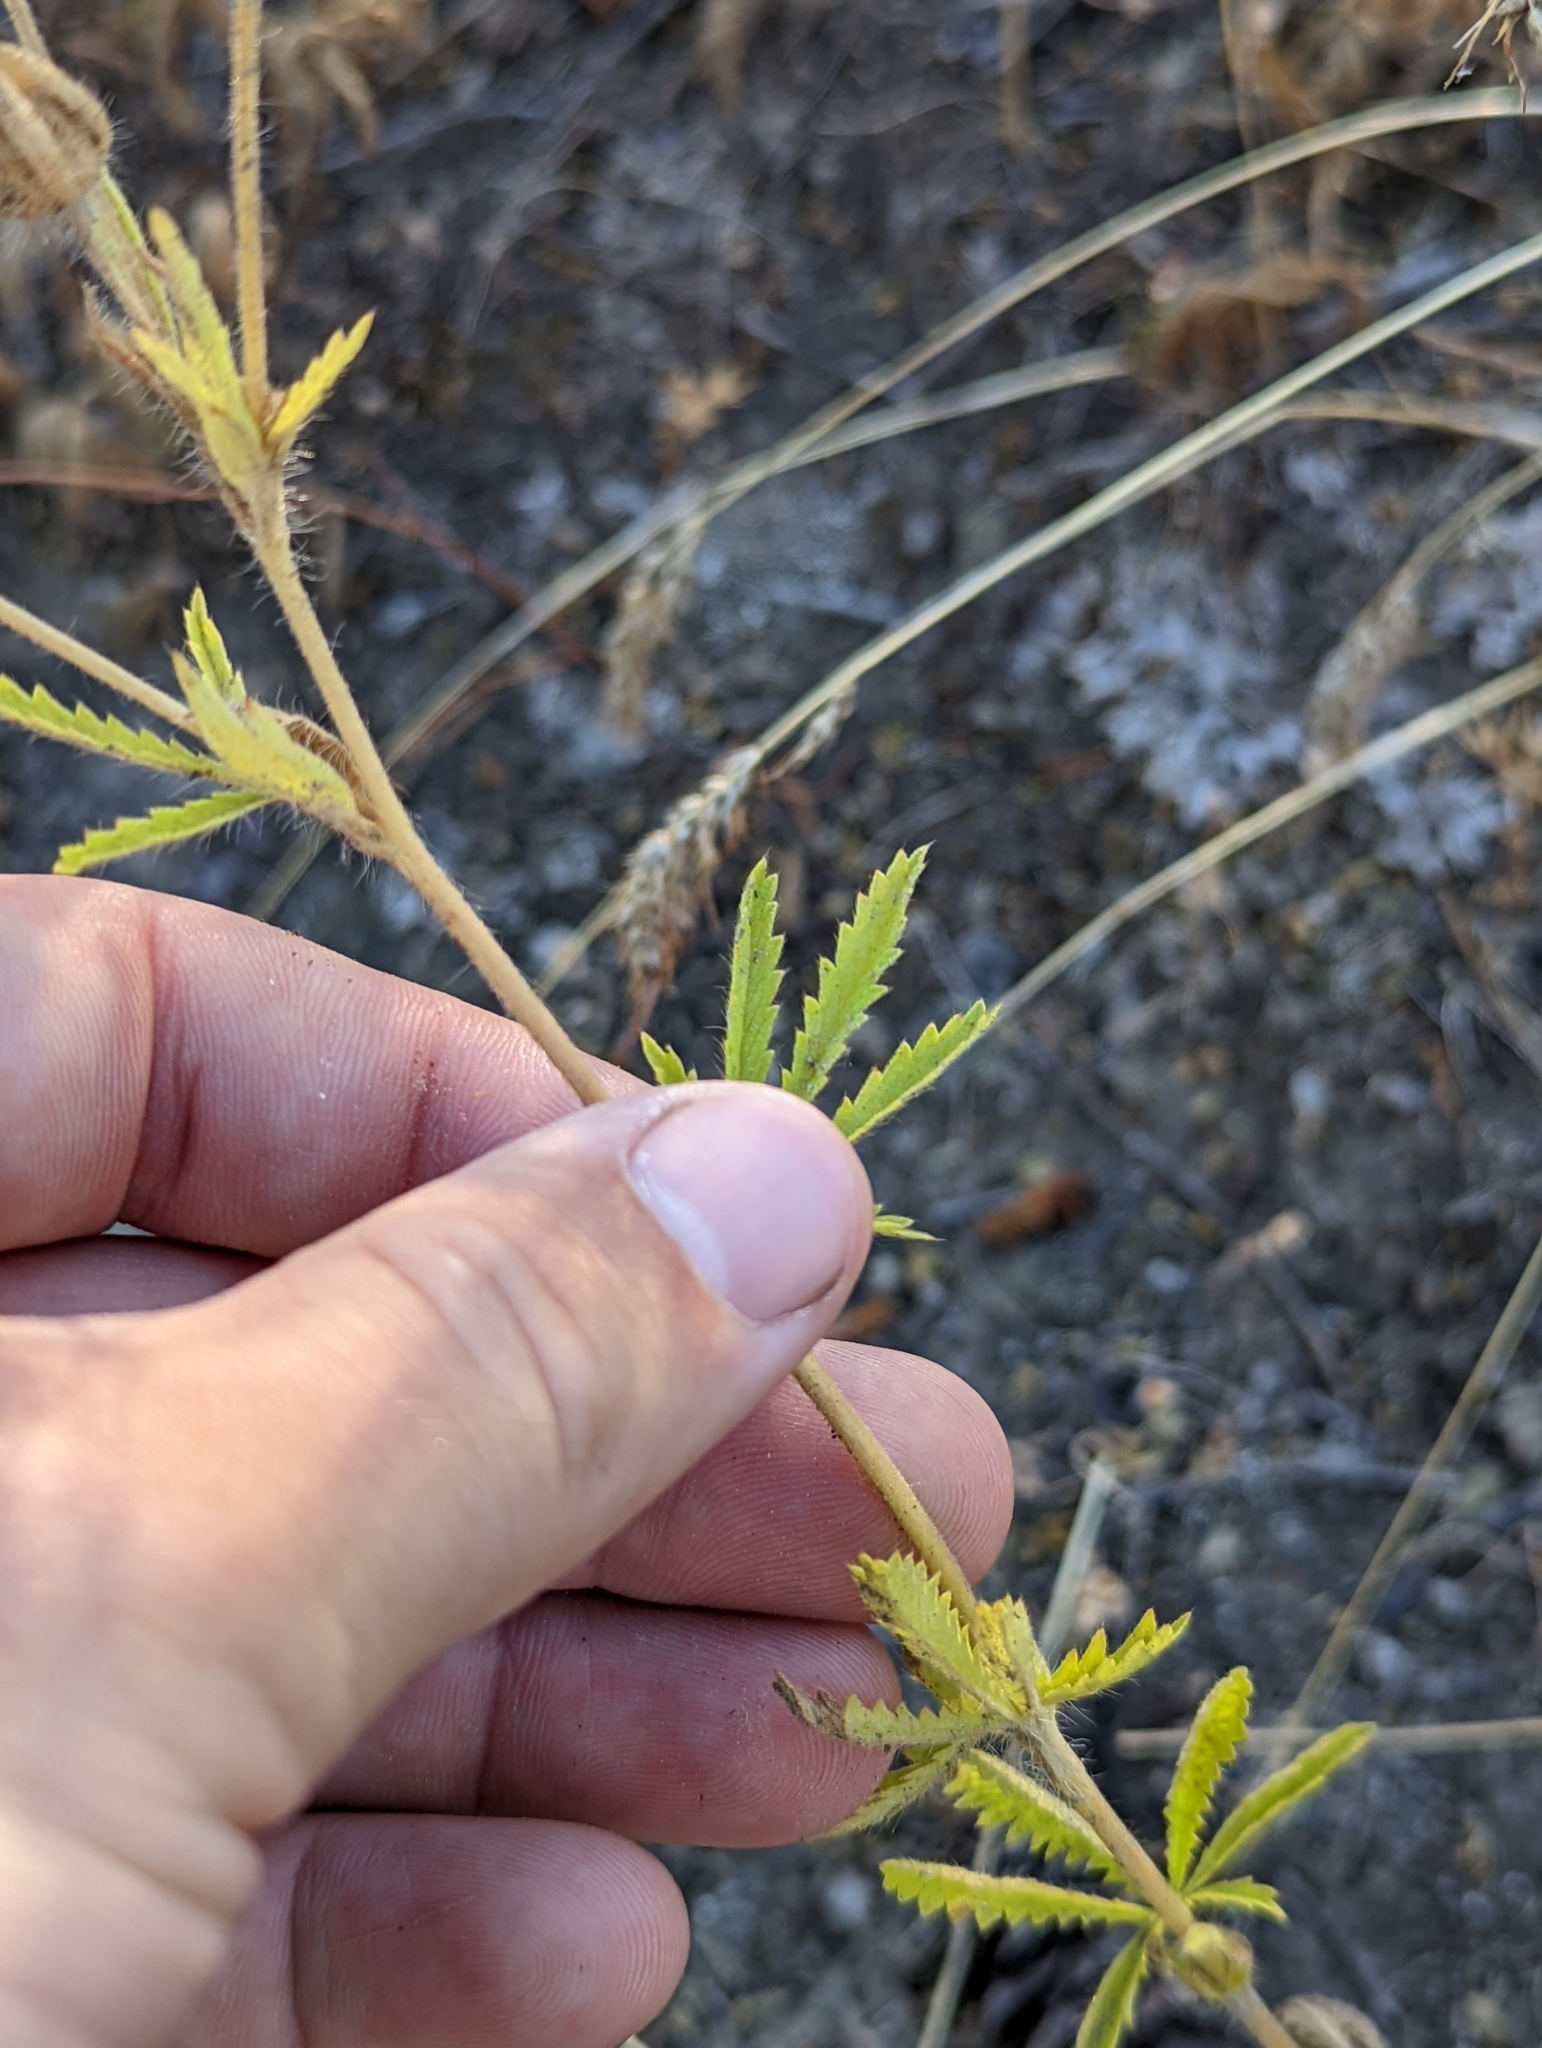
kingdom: Plantae
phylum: Tracheophyta
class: Magnoliopsida
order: Rosales
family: Rosaceae
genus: Potentilla
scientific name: Potentilla recta
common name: Sulphur cinquefoil
